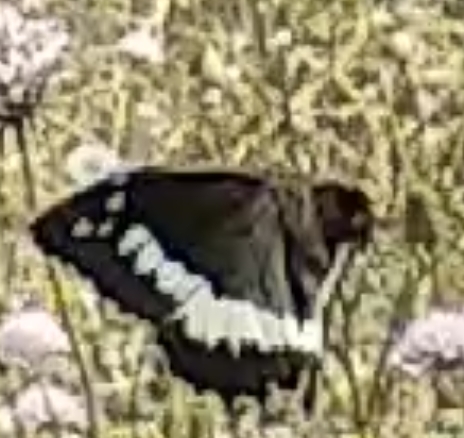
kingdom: Animalia
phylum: Arthropoda
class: Insecta
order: Lepidoptera
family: Lycaenidae
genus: Loweia
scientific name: Loweia tityrus
